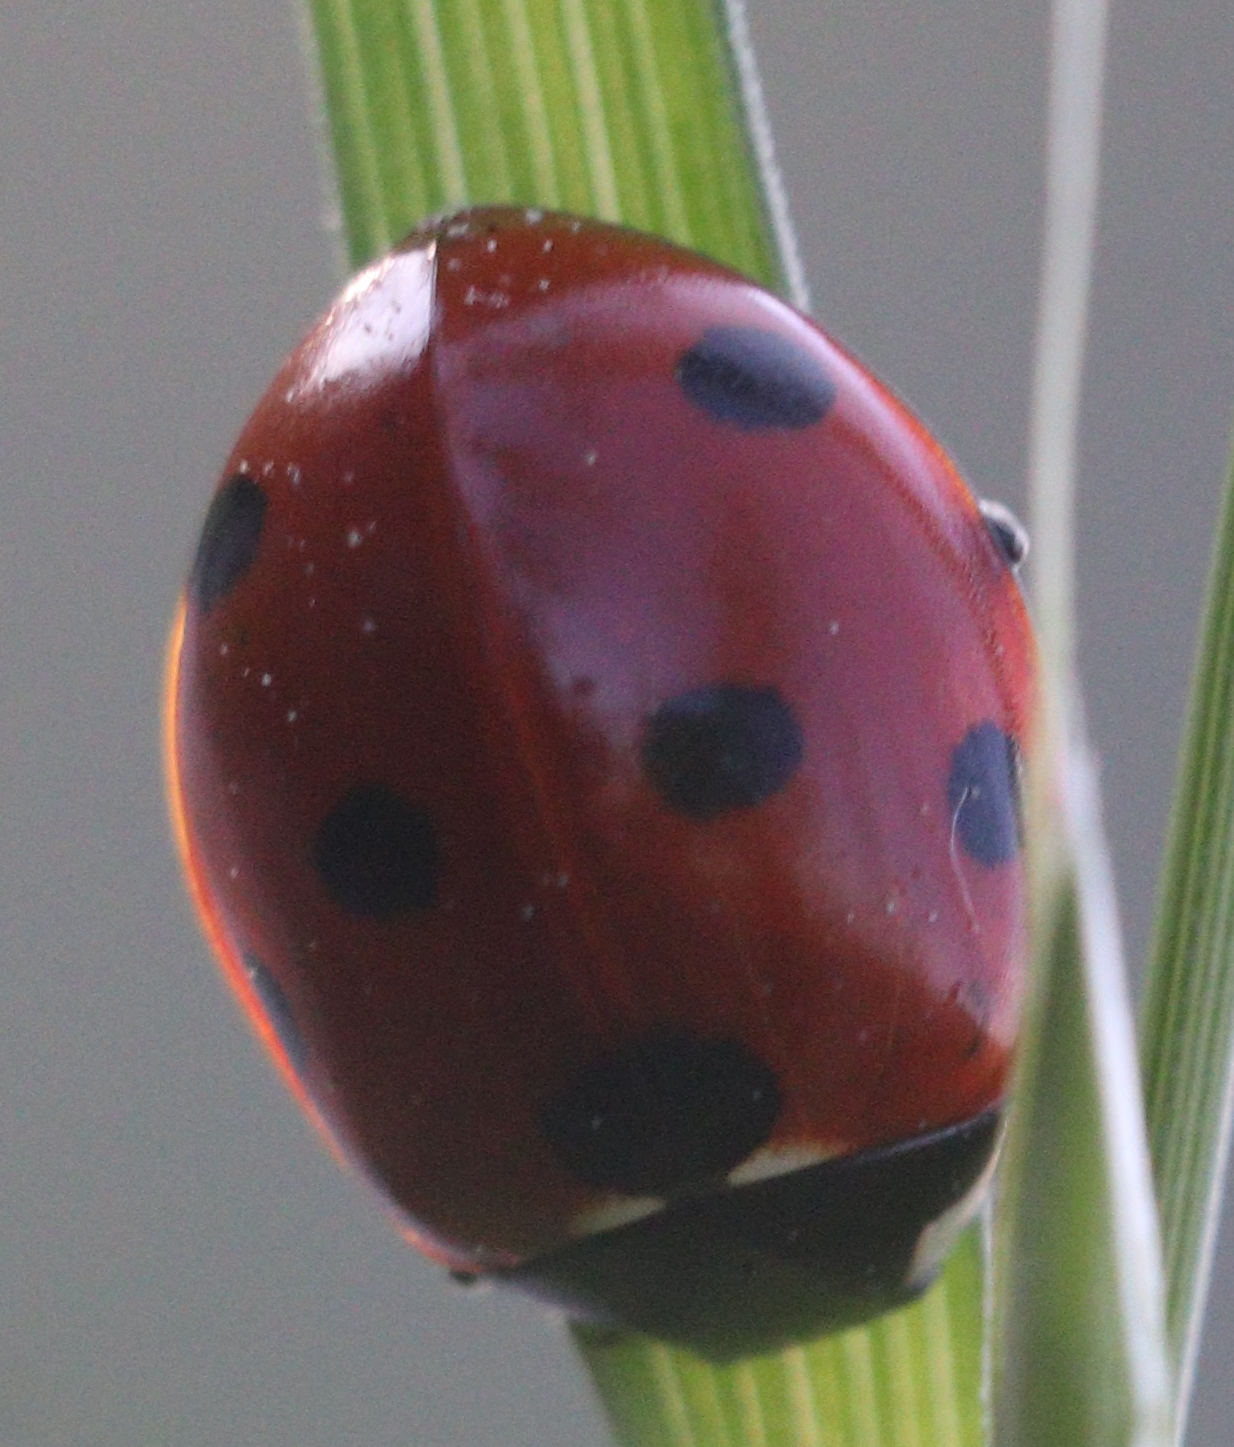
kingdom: Animalia
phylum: Arthropoda
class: Insecta
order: Coleoptera
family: Coccinellidae
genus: Coccinella
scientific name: Coccinella septempunctata
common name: Sevenspotted lady beetle
